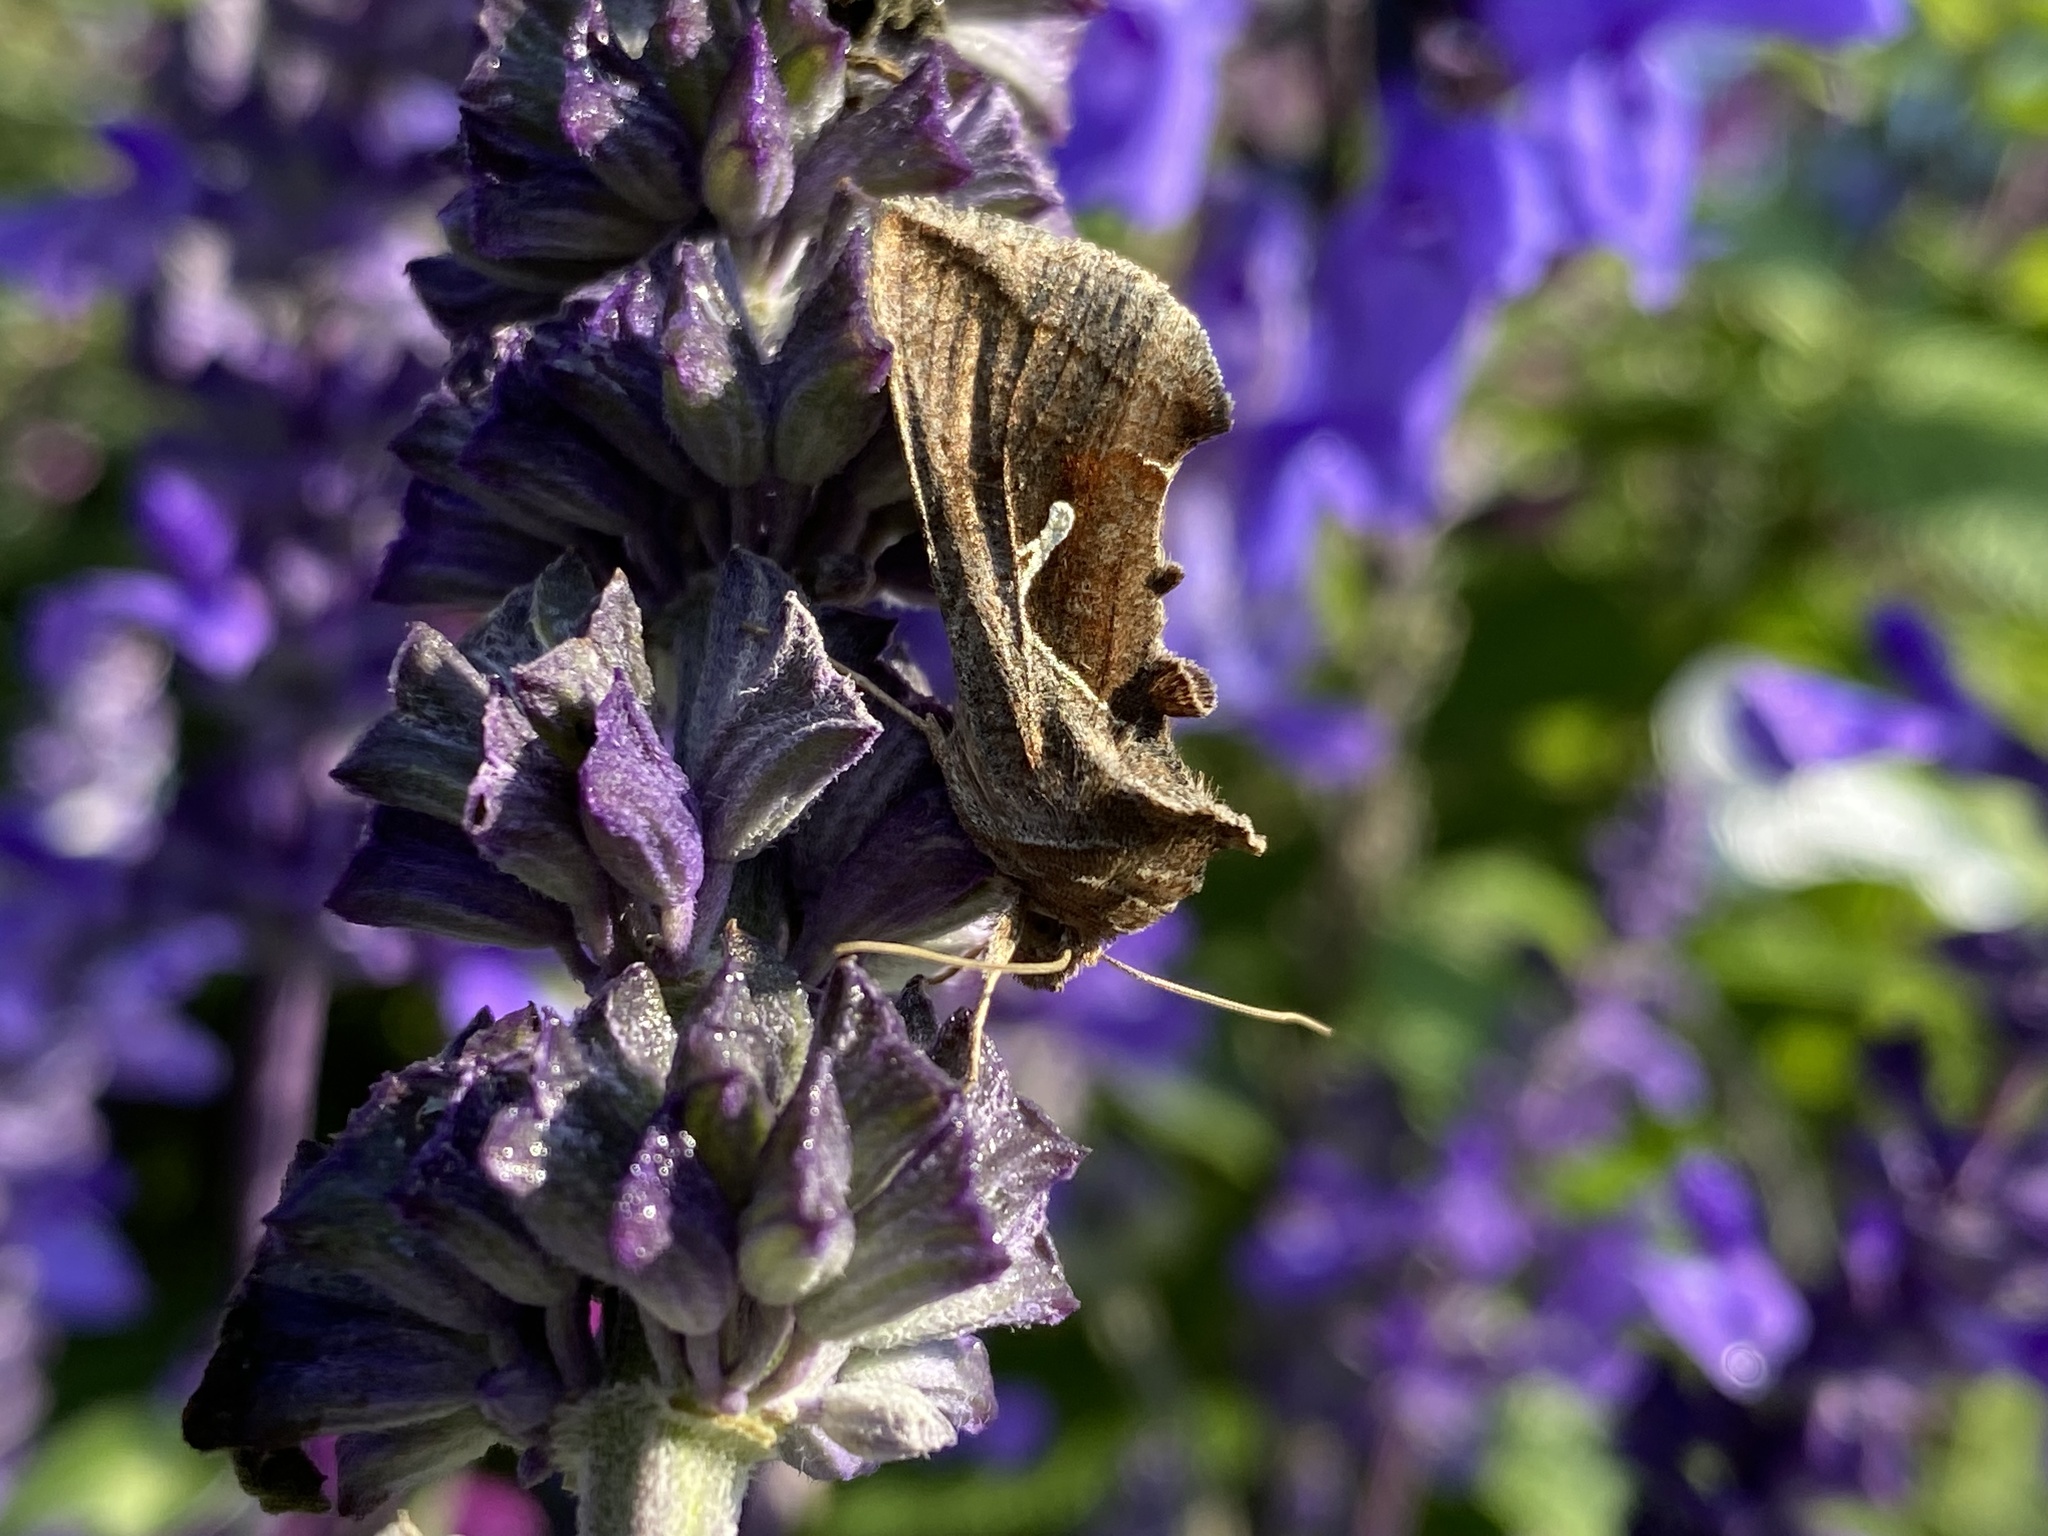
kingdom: Animalia
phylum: Arthropoda
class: Insecta
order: Lepidoptera
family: Noctuidae
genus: Anagrapha
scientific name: Anagrapha falcifera
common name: Celery looper
